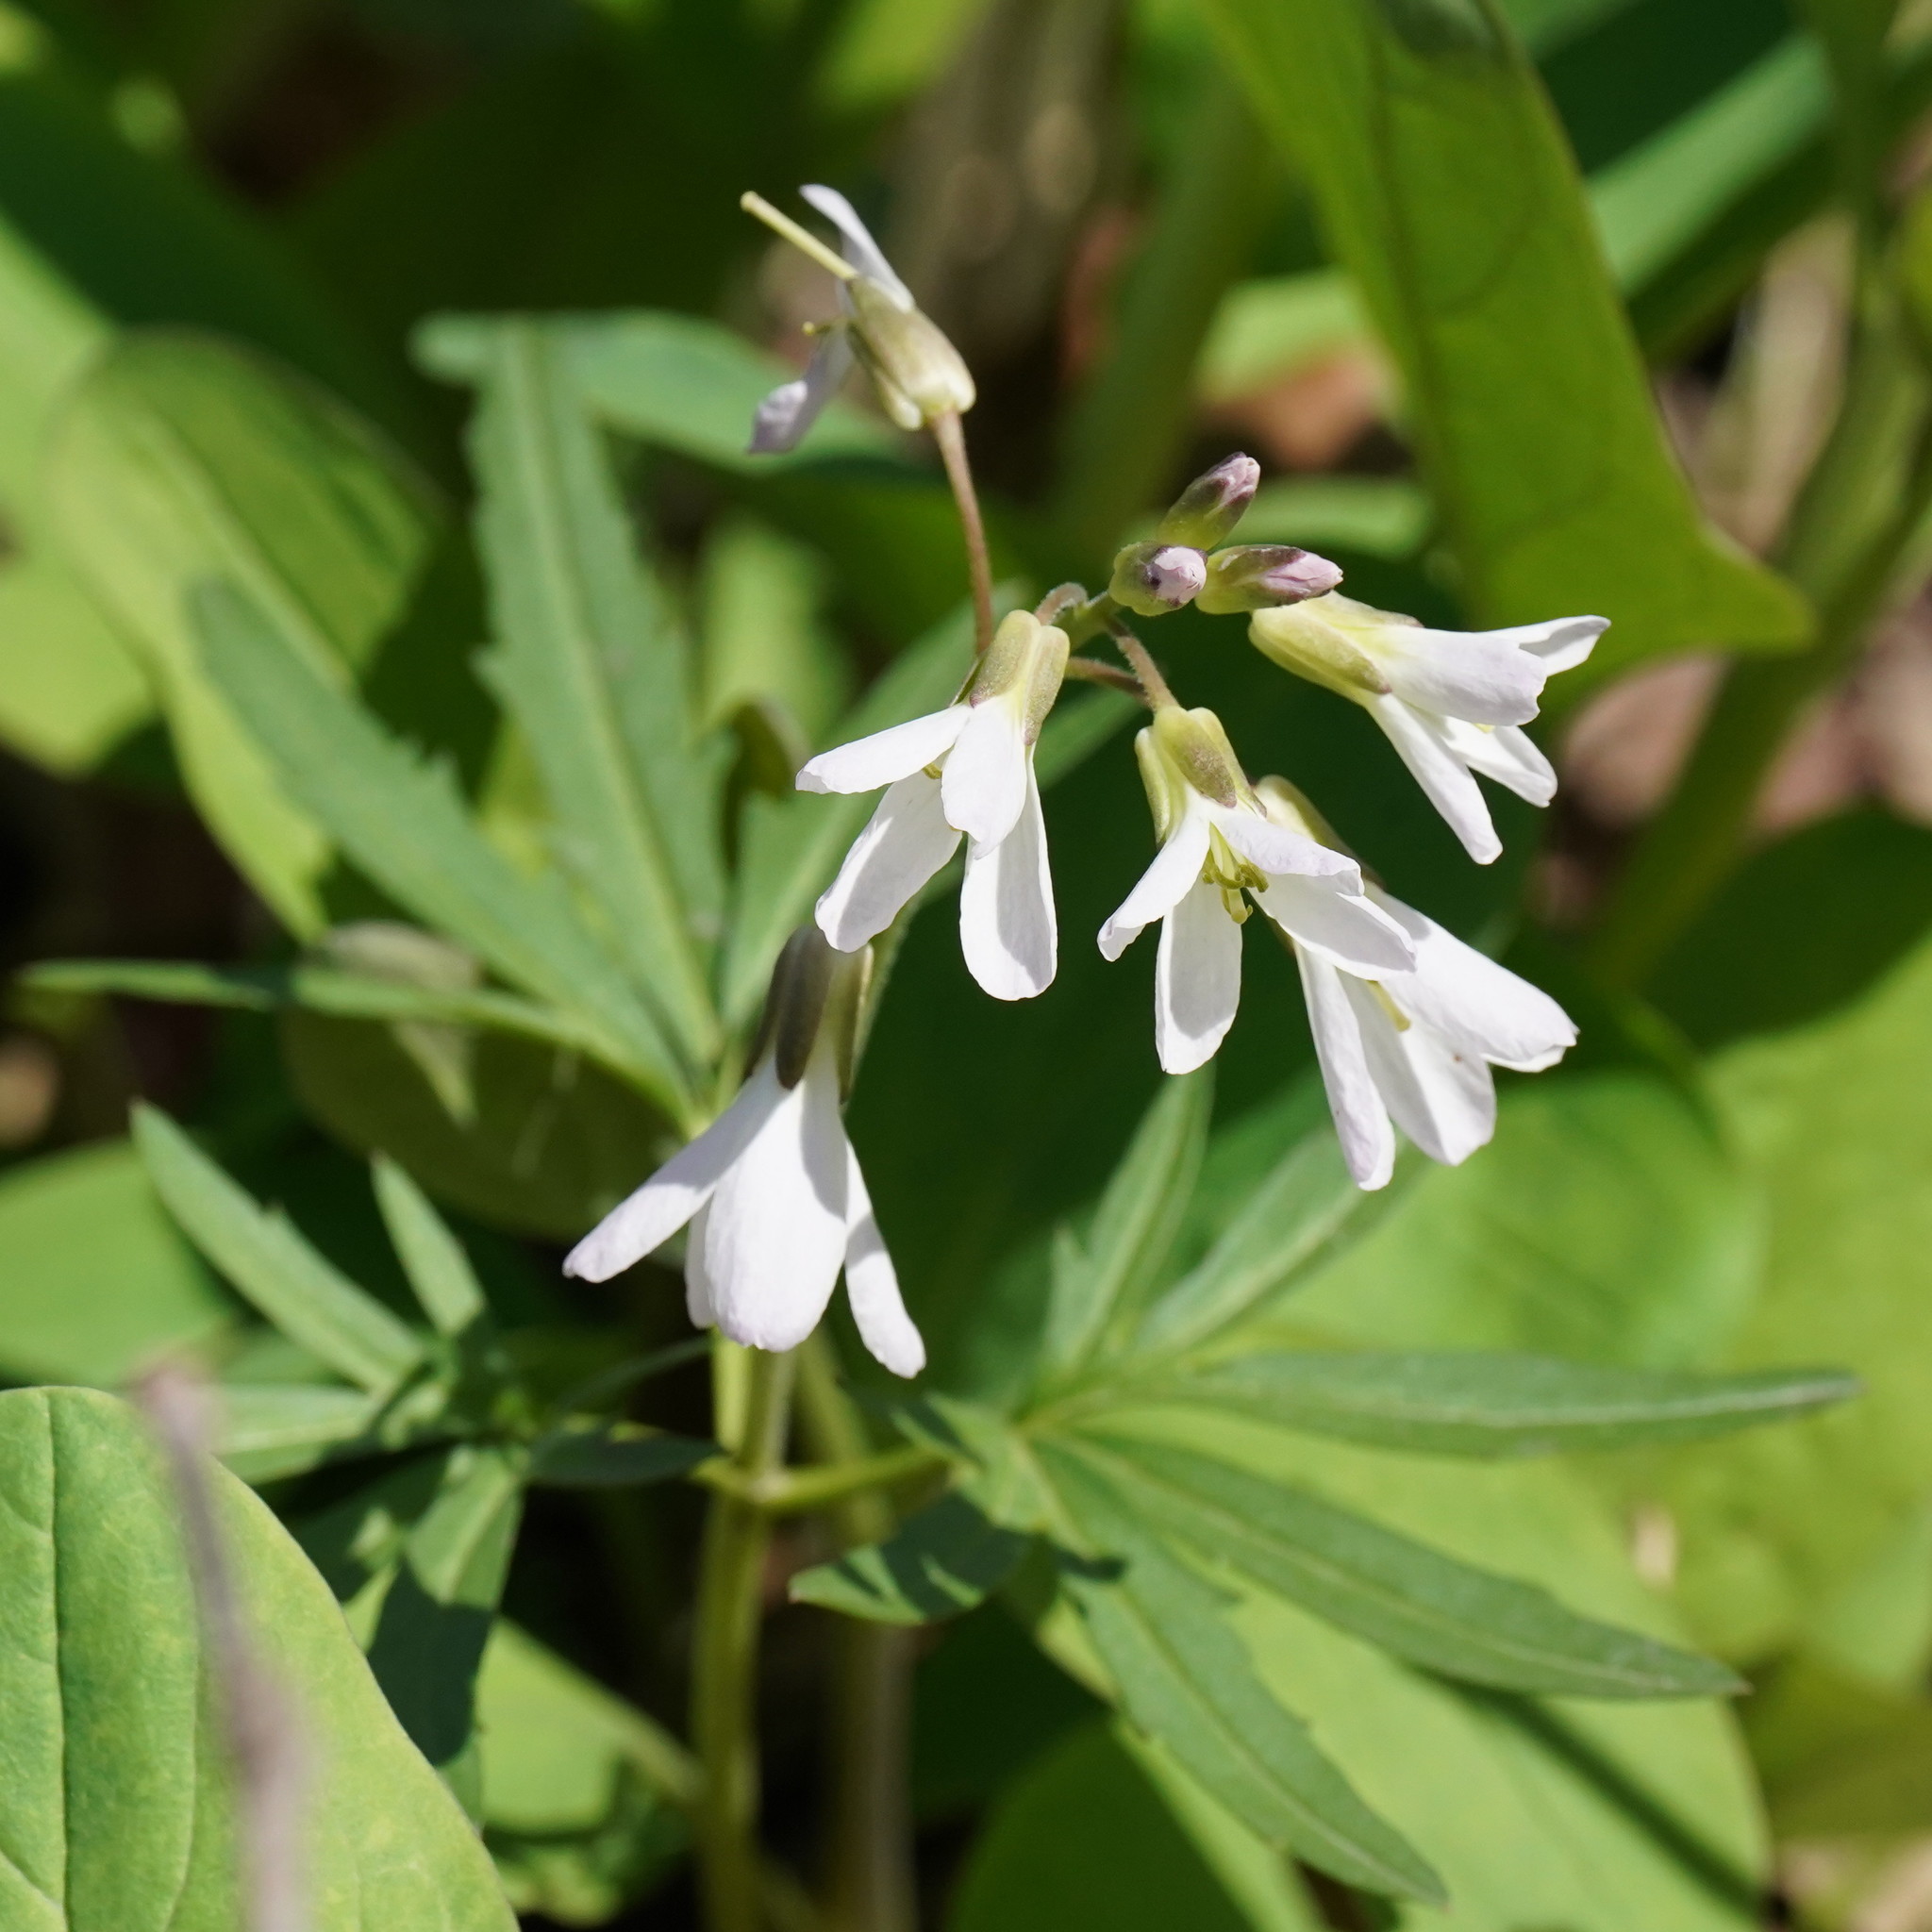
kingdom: Plantae
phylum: Tracheophyta
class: Magnoliopsida
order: Brassicales
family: Brassicaceae
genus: Cardamine
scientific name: Cardamine concatenata
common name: Cut-leaf toothcup
